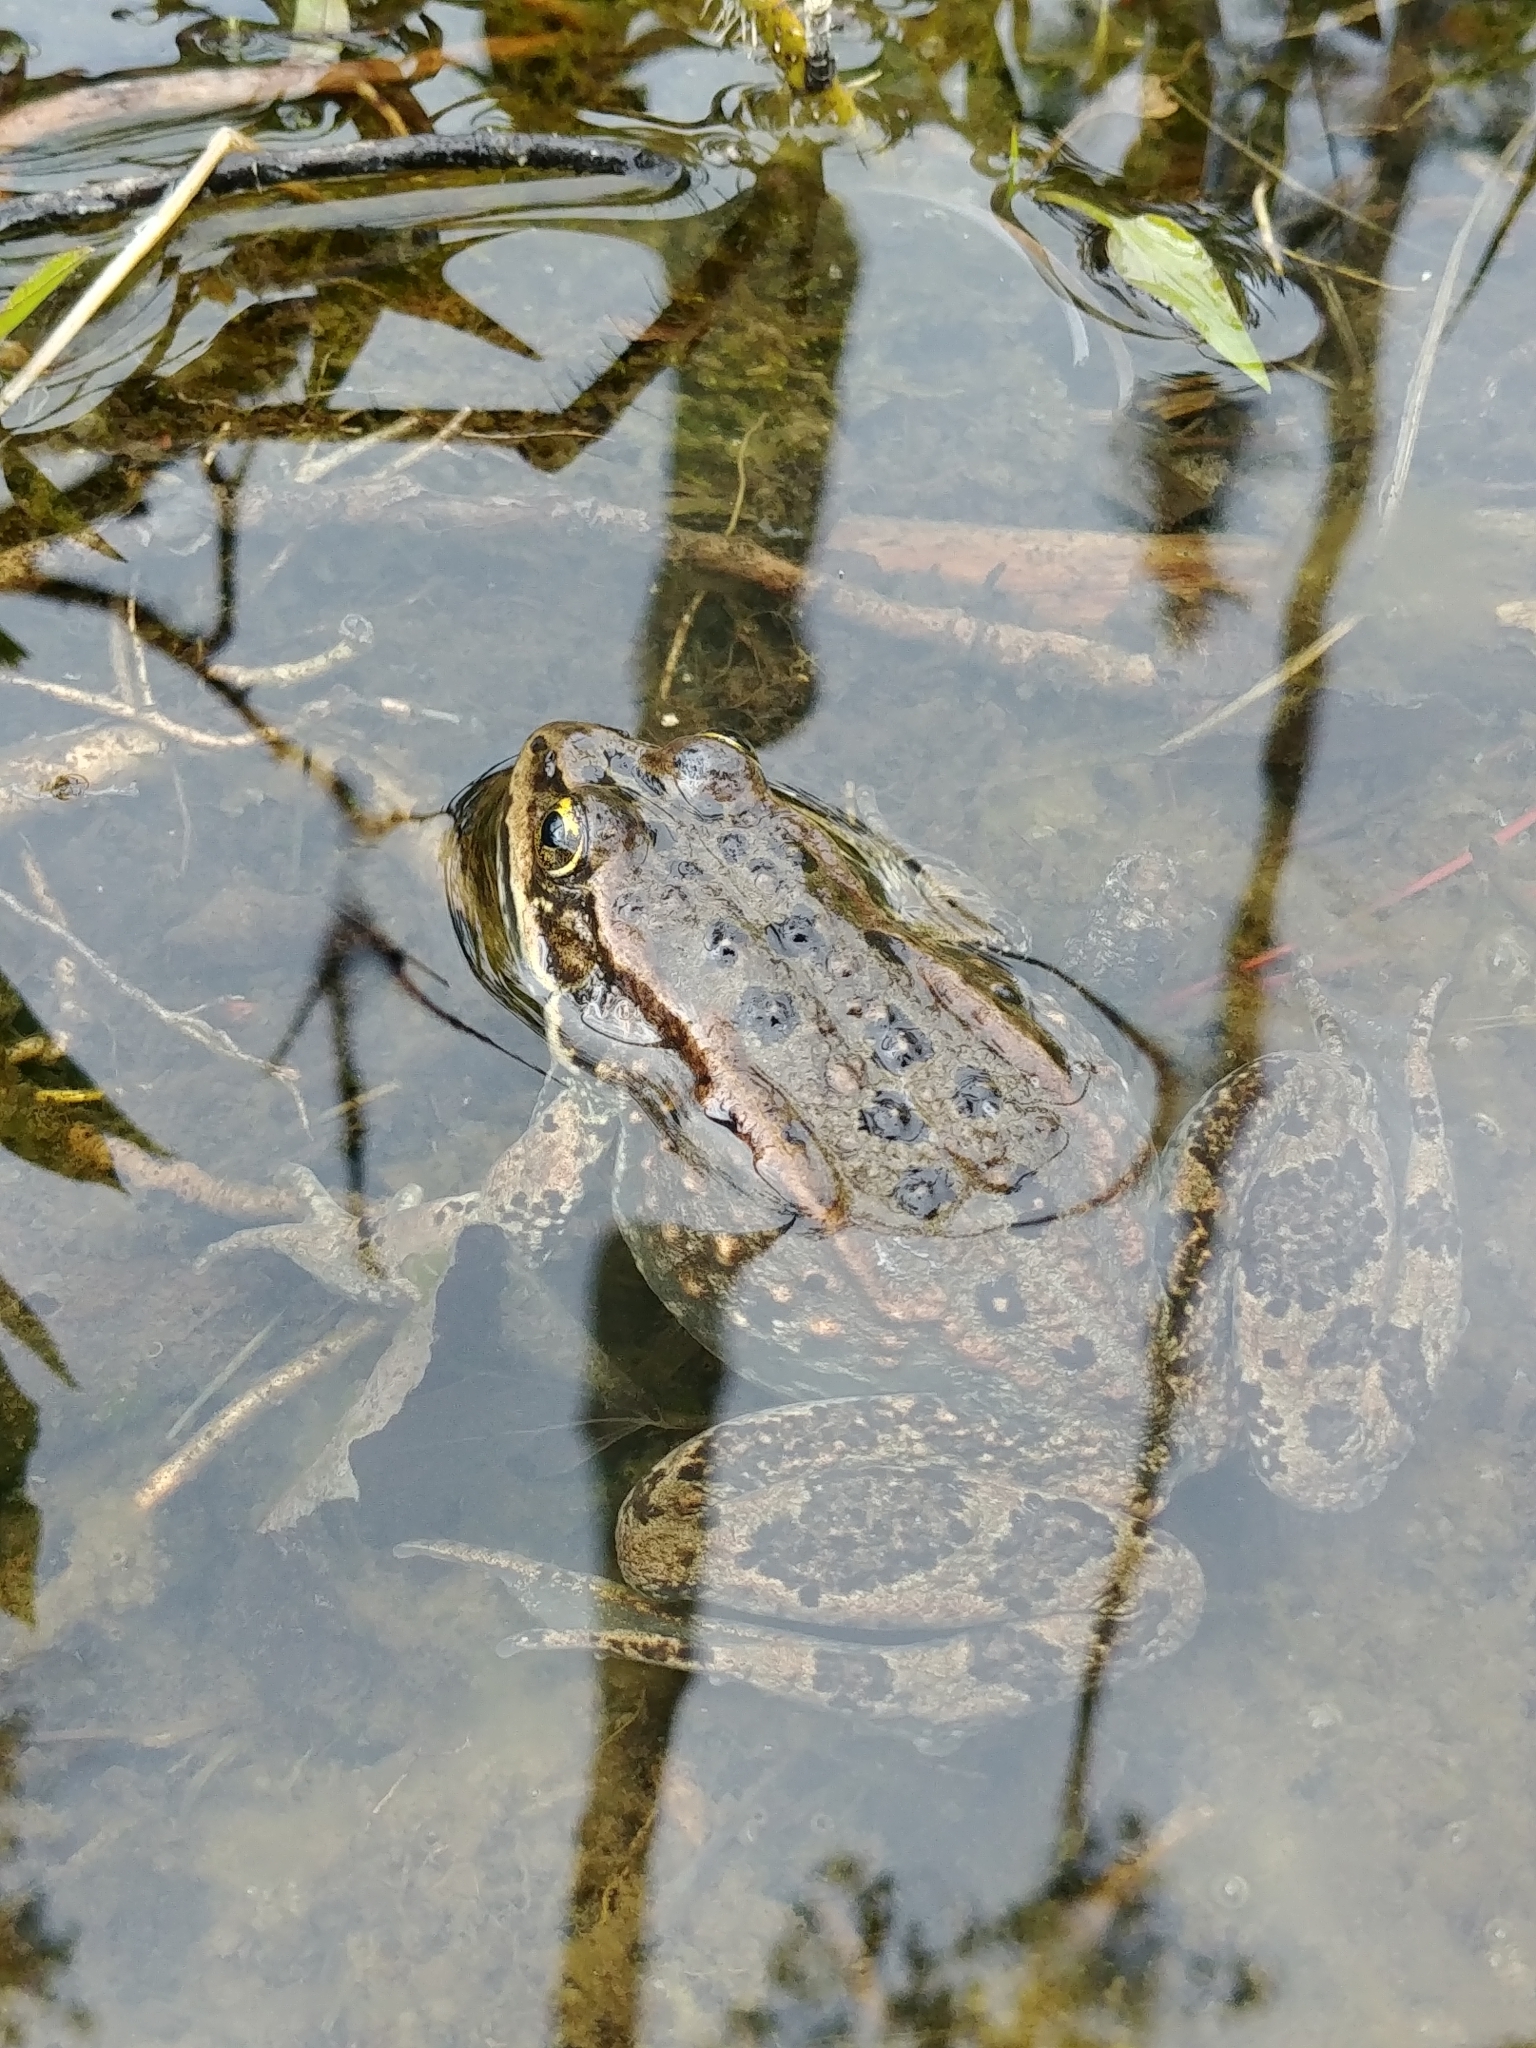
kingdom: Animalia
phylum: Chordata
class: Amphibia
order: Anura
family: Ranidae
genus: Rana
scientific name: Rana luteiventris
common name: Columbia spotted frog
